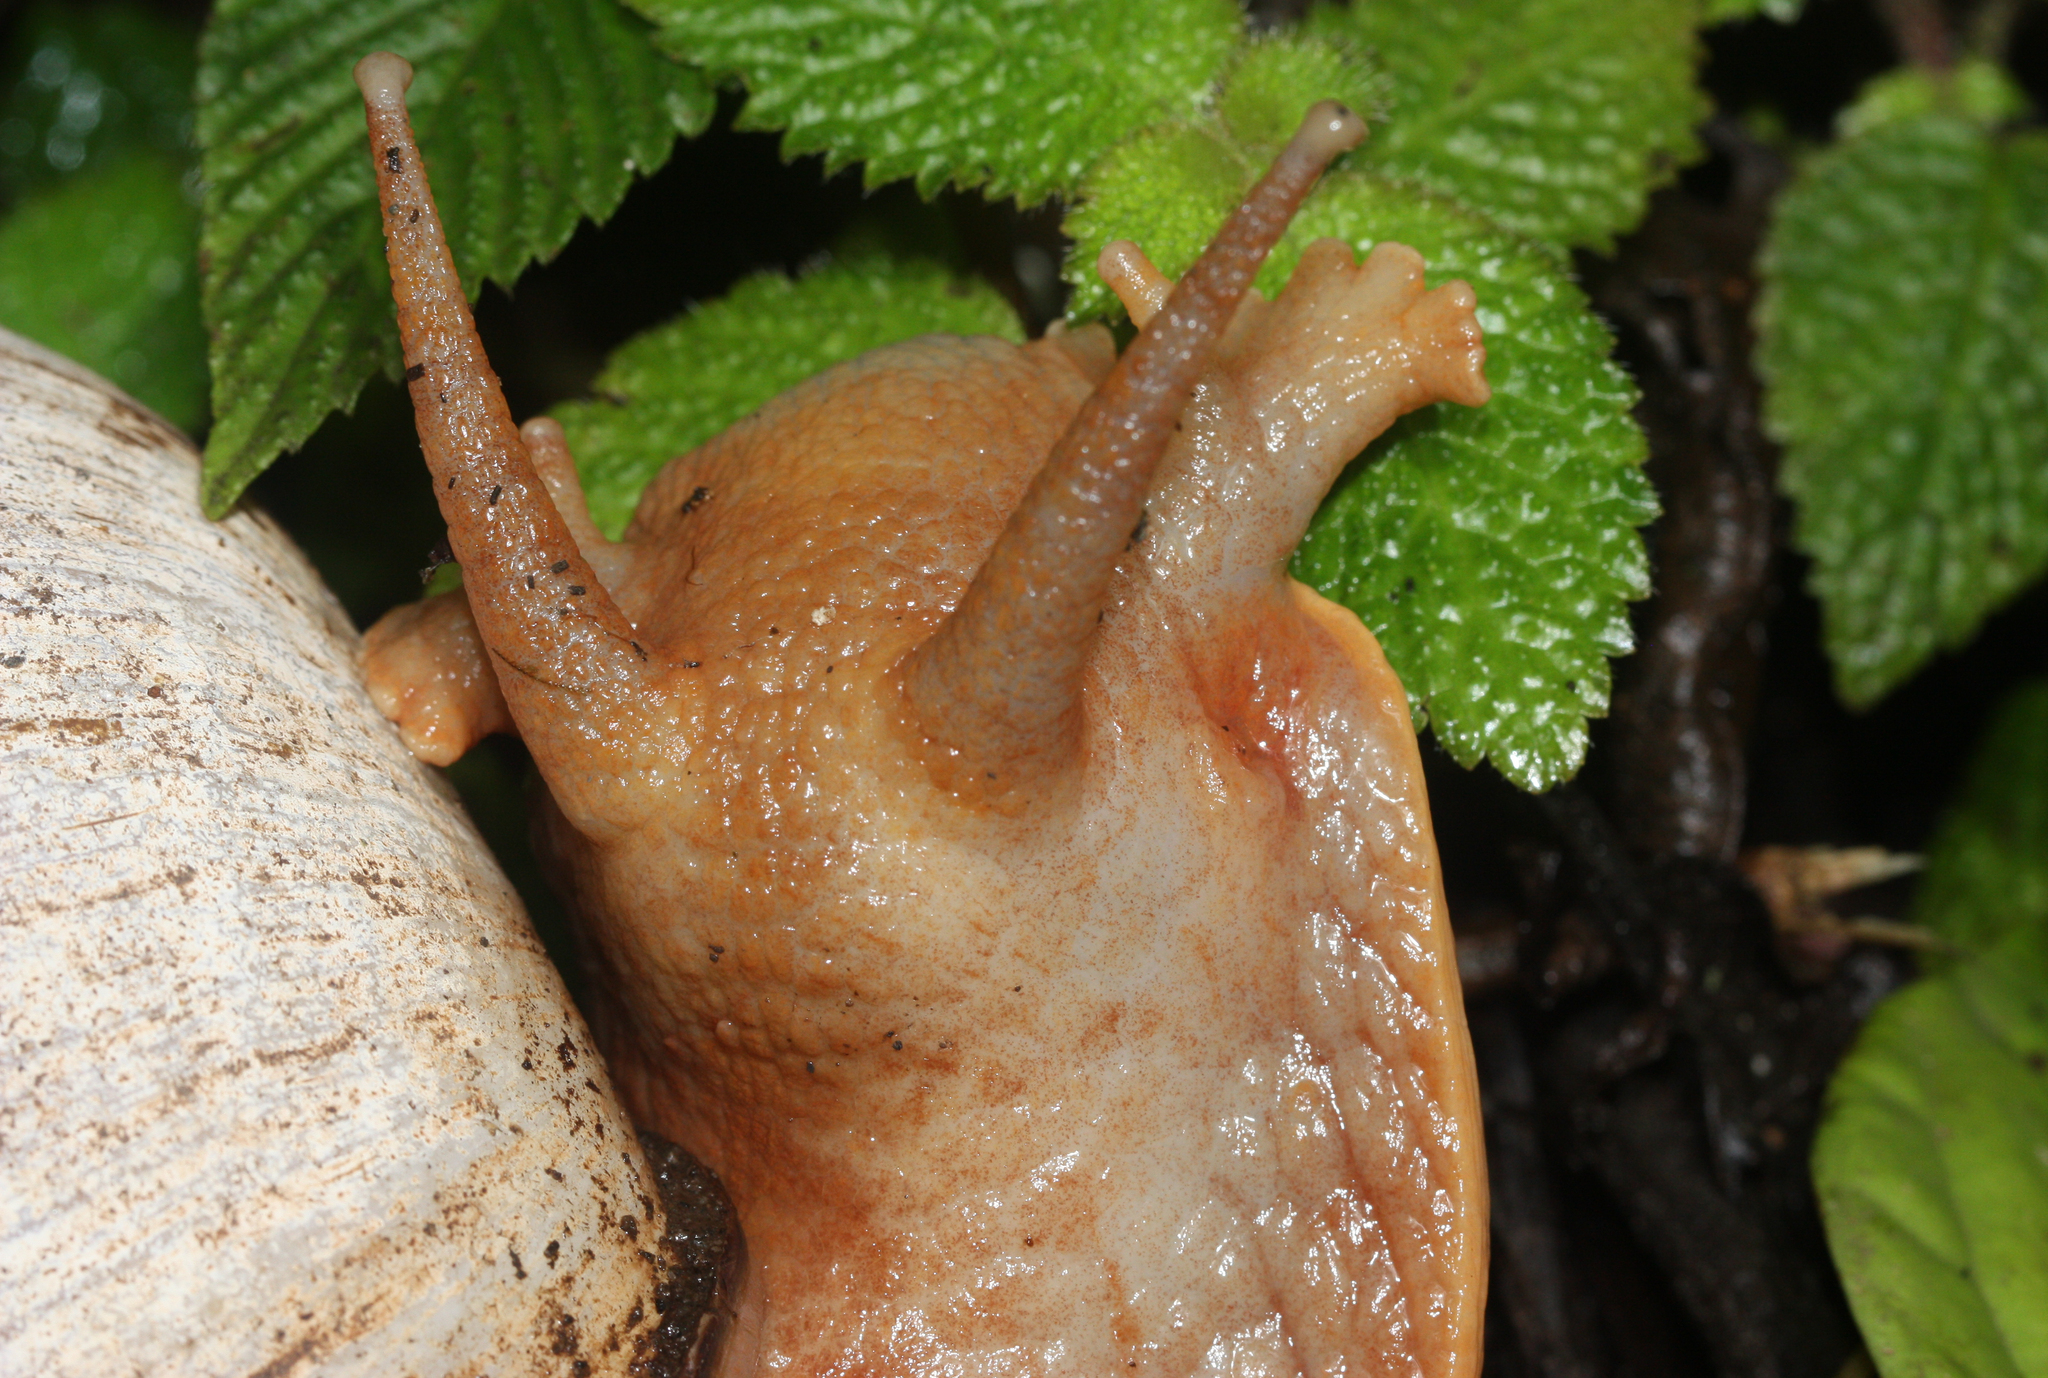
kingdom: Animalia
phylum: Mollusca
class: Gastropoda
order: Stylommatophora
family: Strophocheilidae
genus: Megalobulimus
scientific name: Megalobulimus popelairianus
